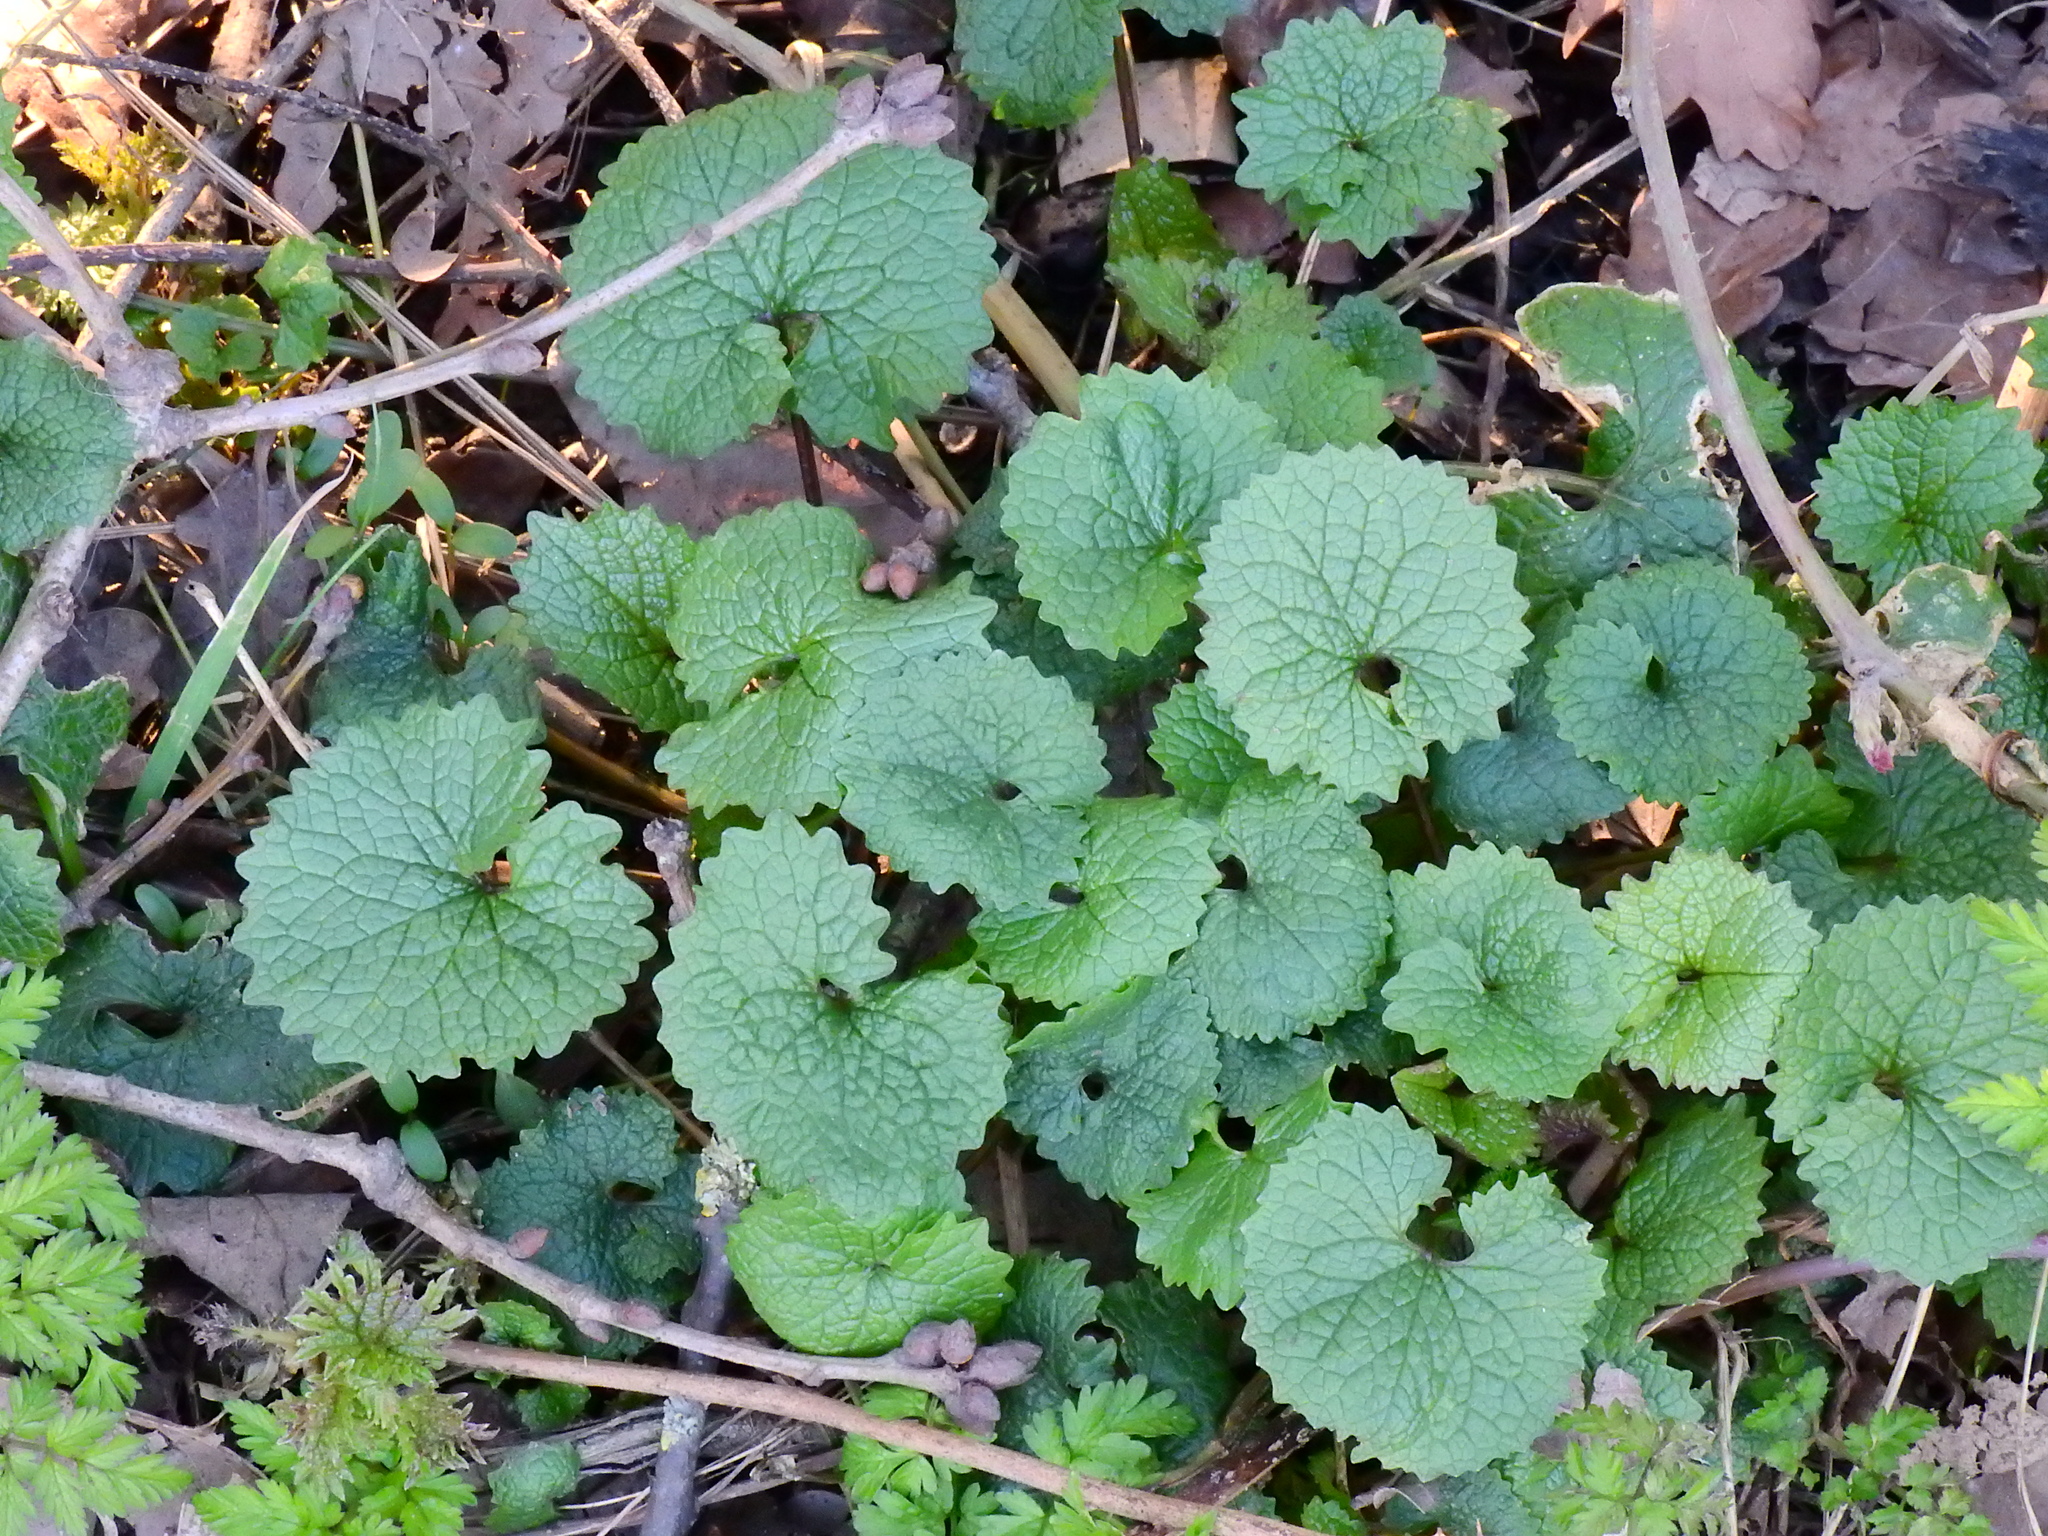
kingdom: Plantae
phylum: Tracheophyta
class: Magnoliopsida
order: Brassicales
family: Brassicaceae
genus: Alliaria
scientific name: Alliaria petiolata
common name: Garlic mustard
